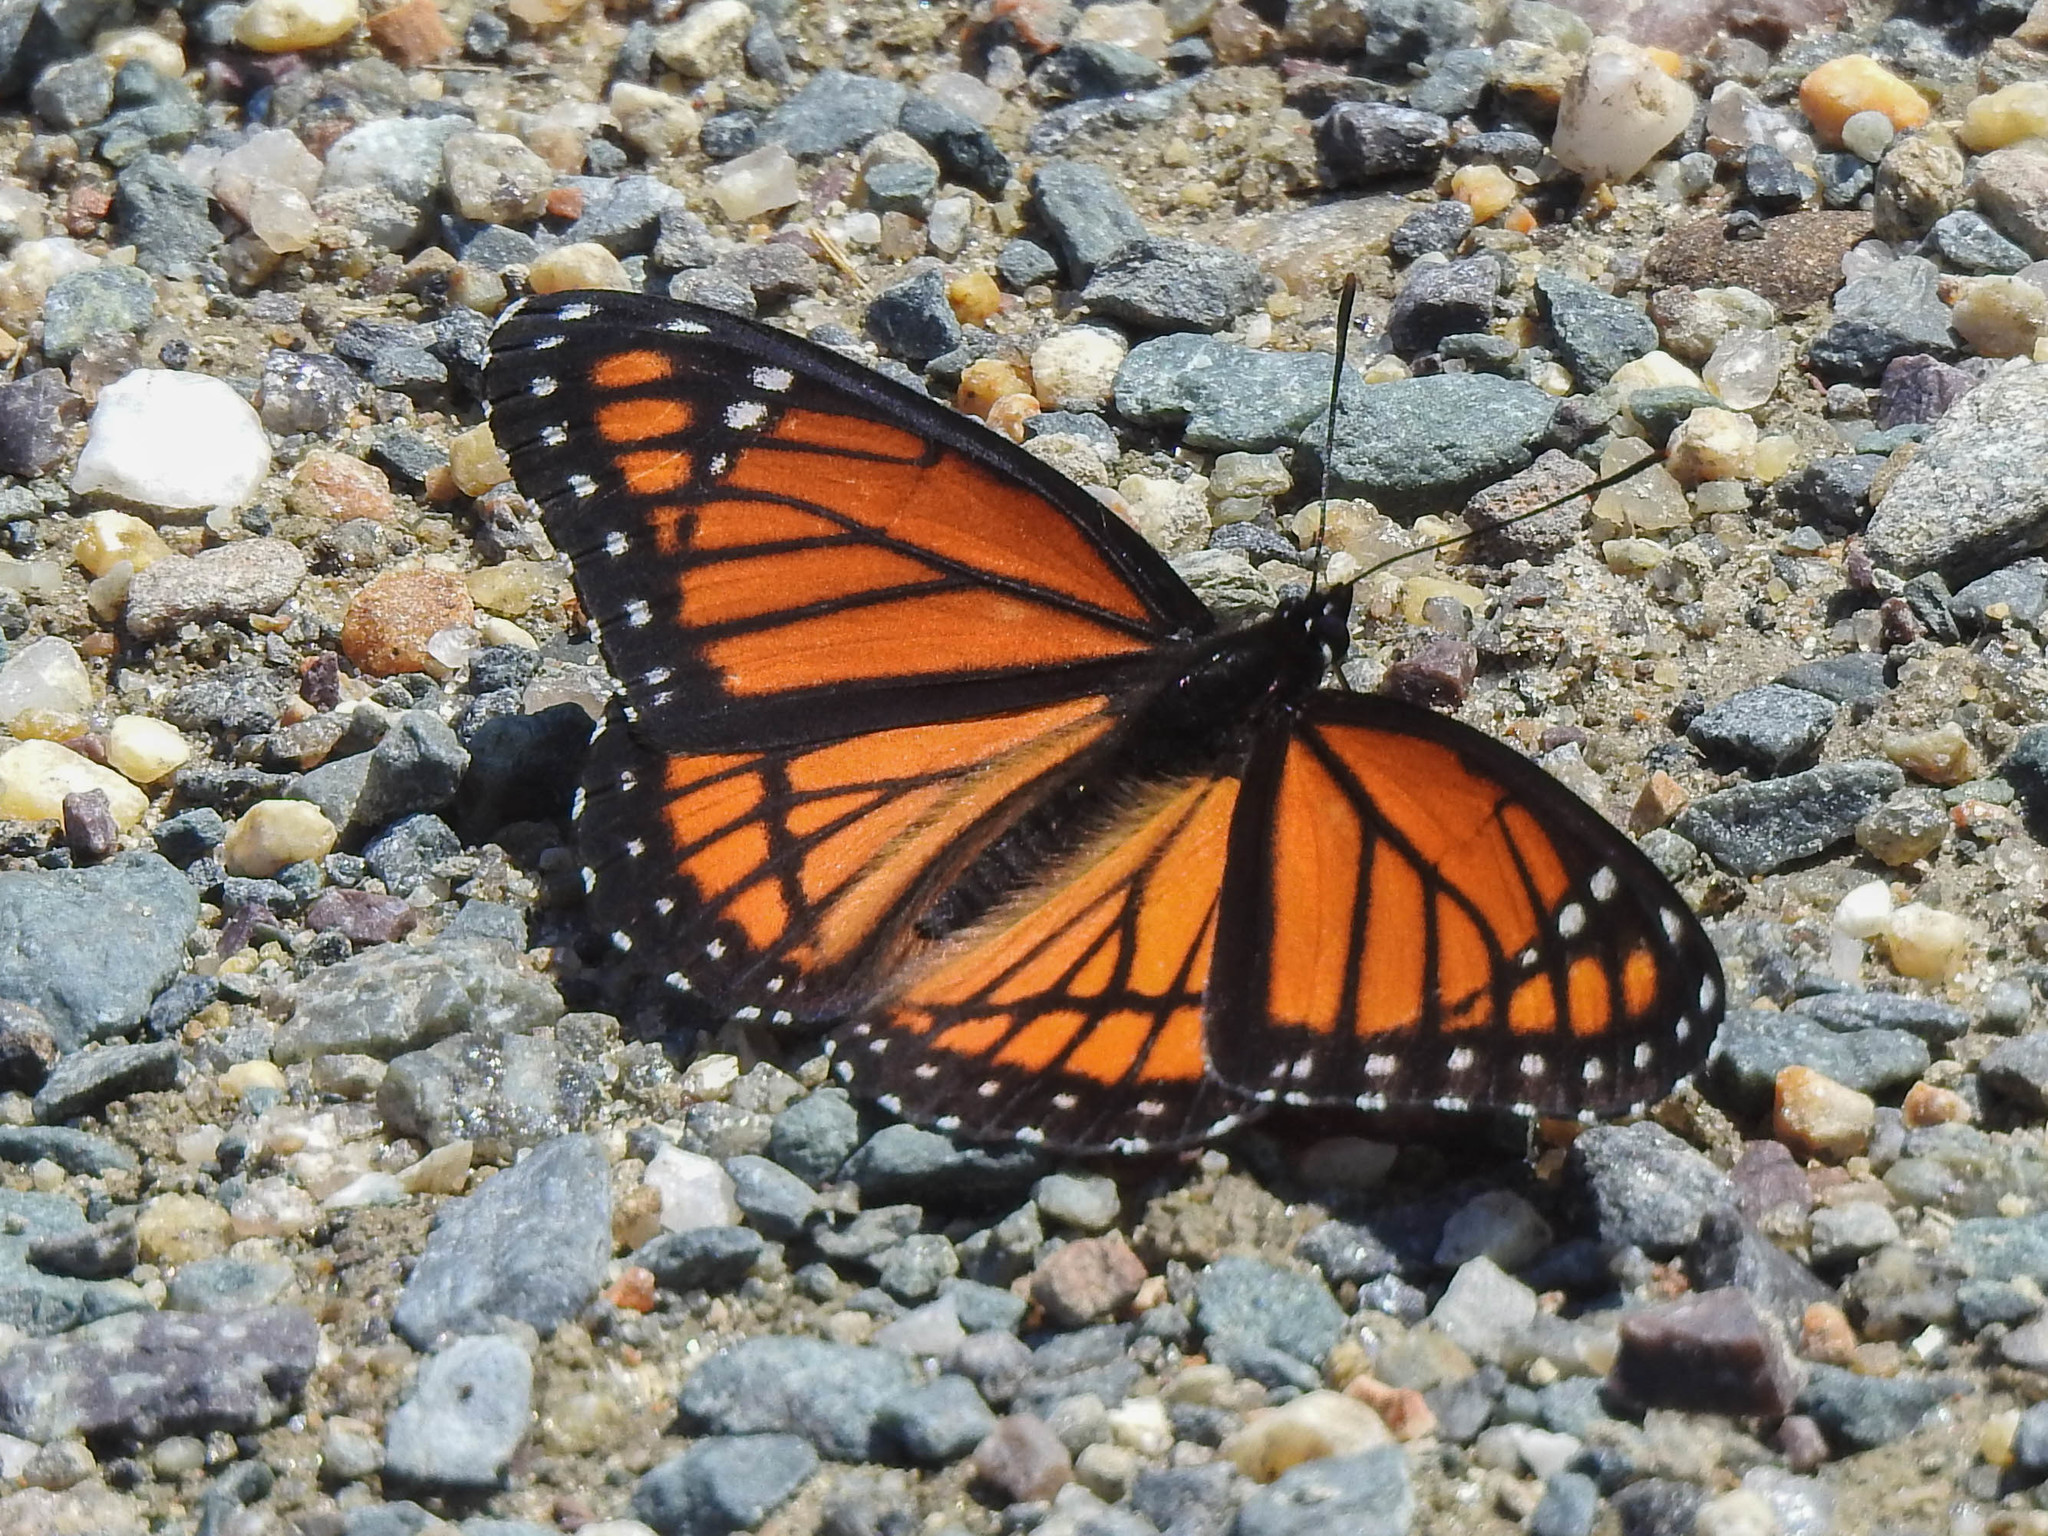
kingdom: Animalia
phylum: Arthropoda
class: Insecta
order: Lepidoptera
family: Nymphalidae
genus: Limenitis
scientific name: Limenitis archippus
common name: Viceroy
